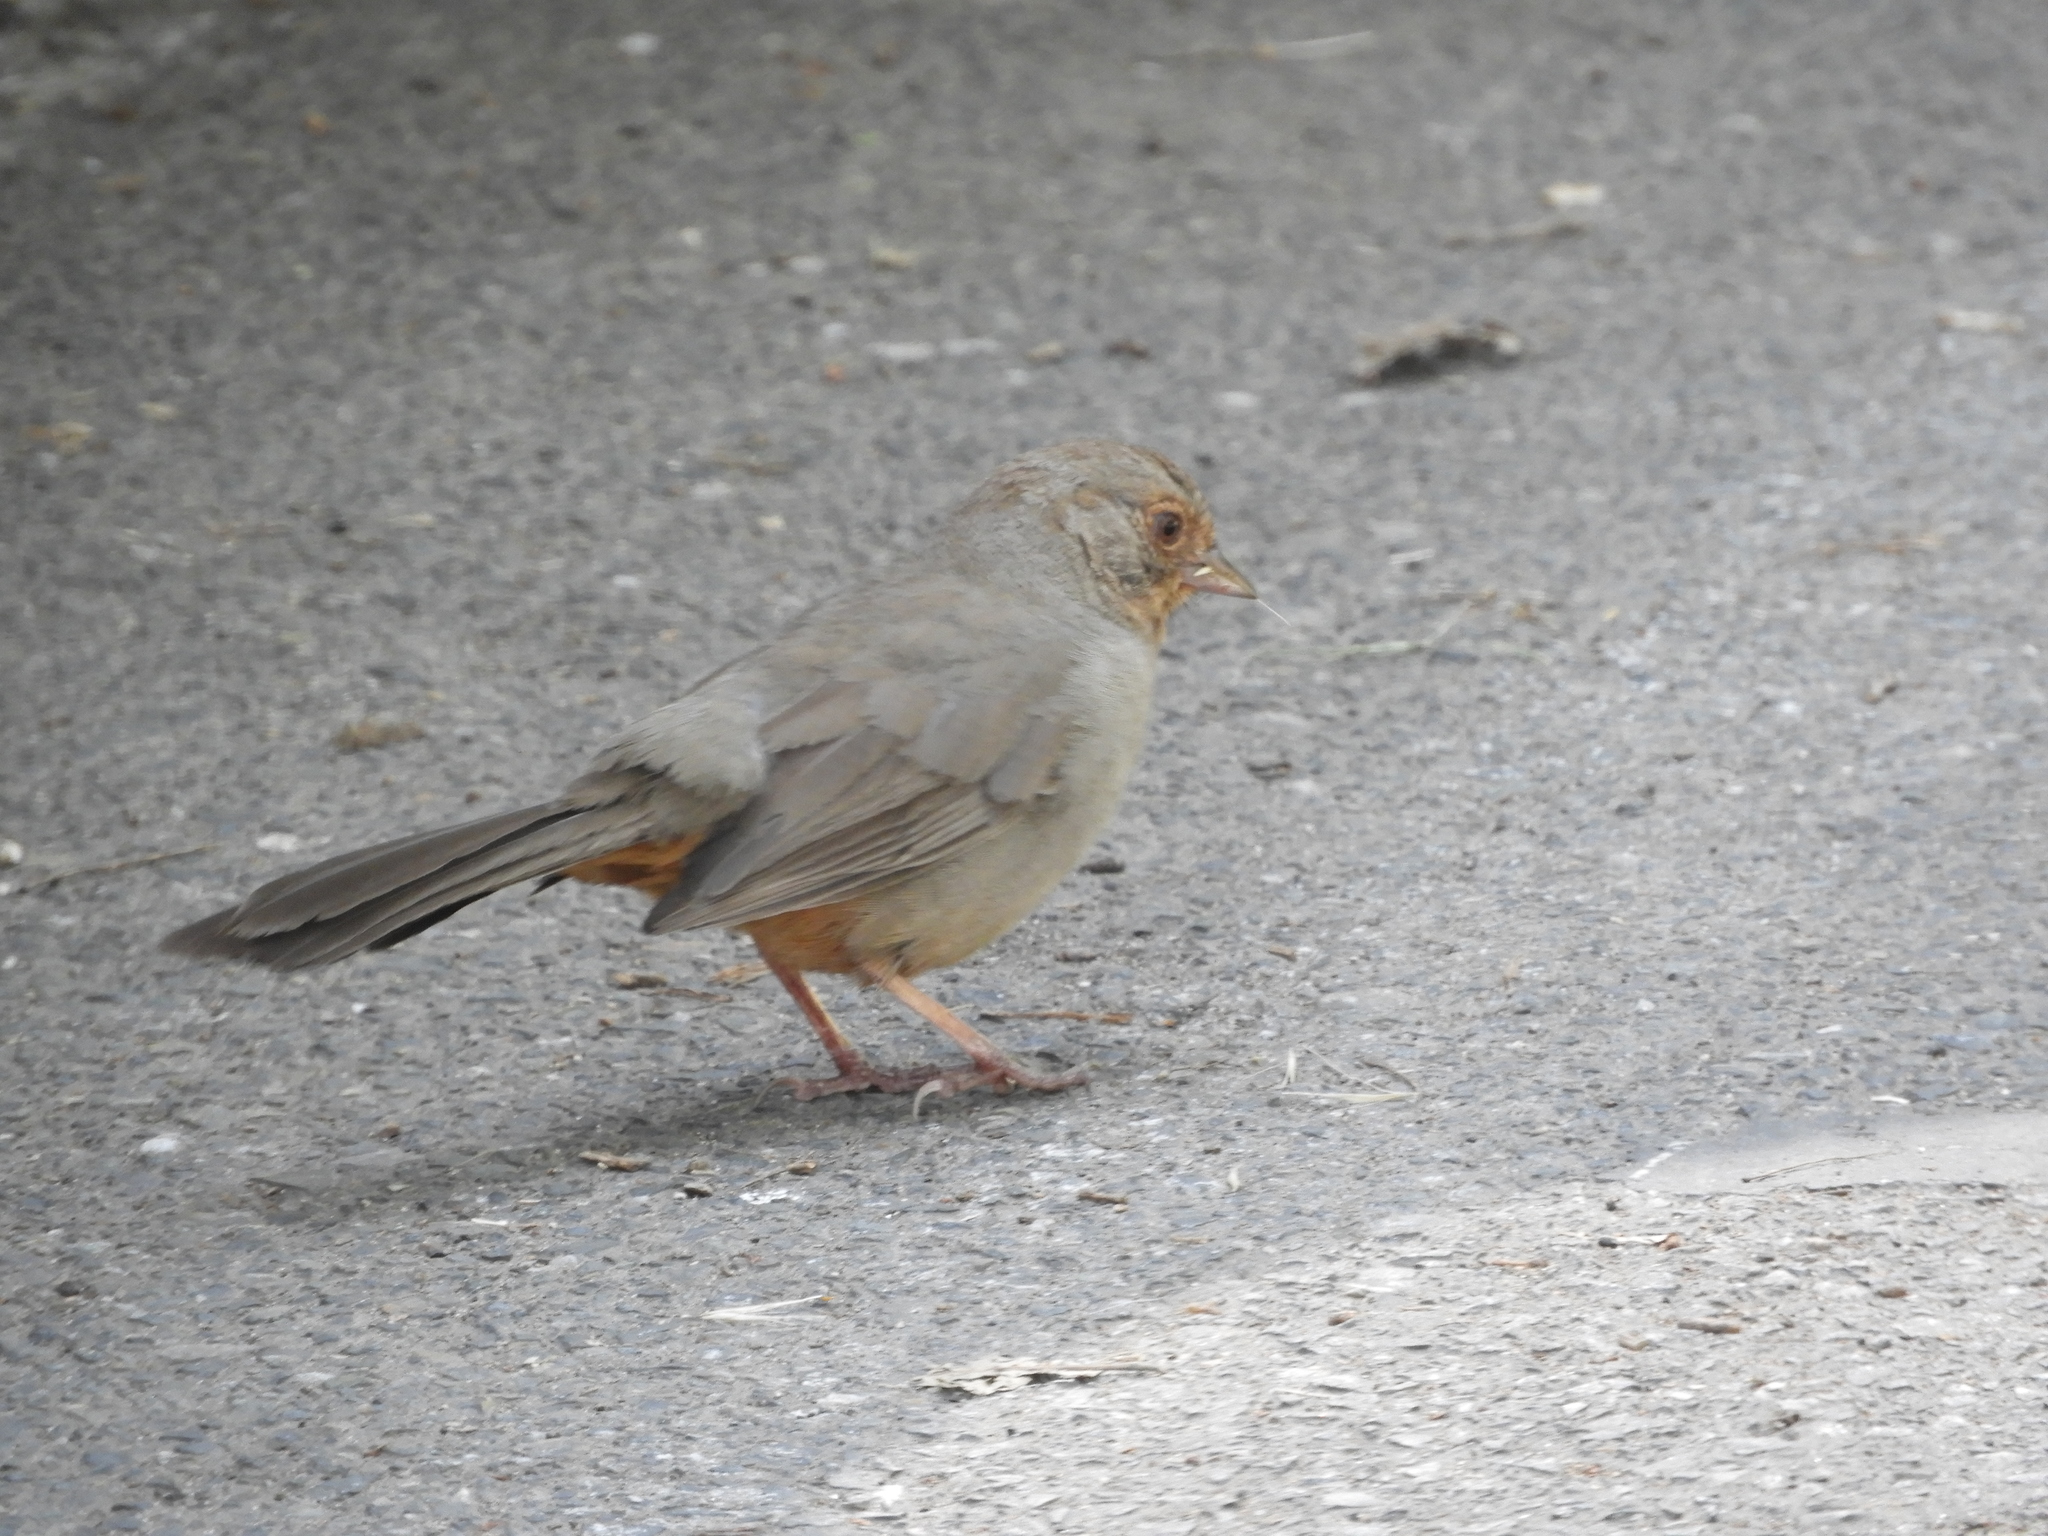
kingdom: Animalia
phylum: Chordata
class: Aves
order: Passeriformes
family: Passerellidae
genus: Melozone
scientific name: Melozone crissalis
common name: California towhee
